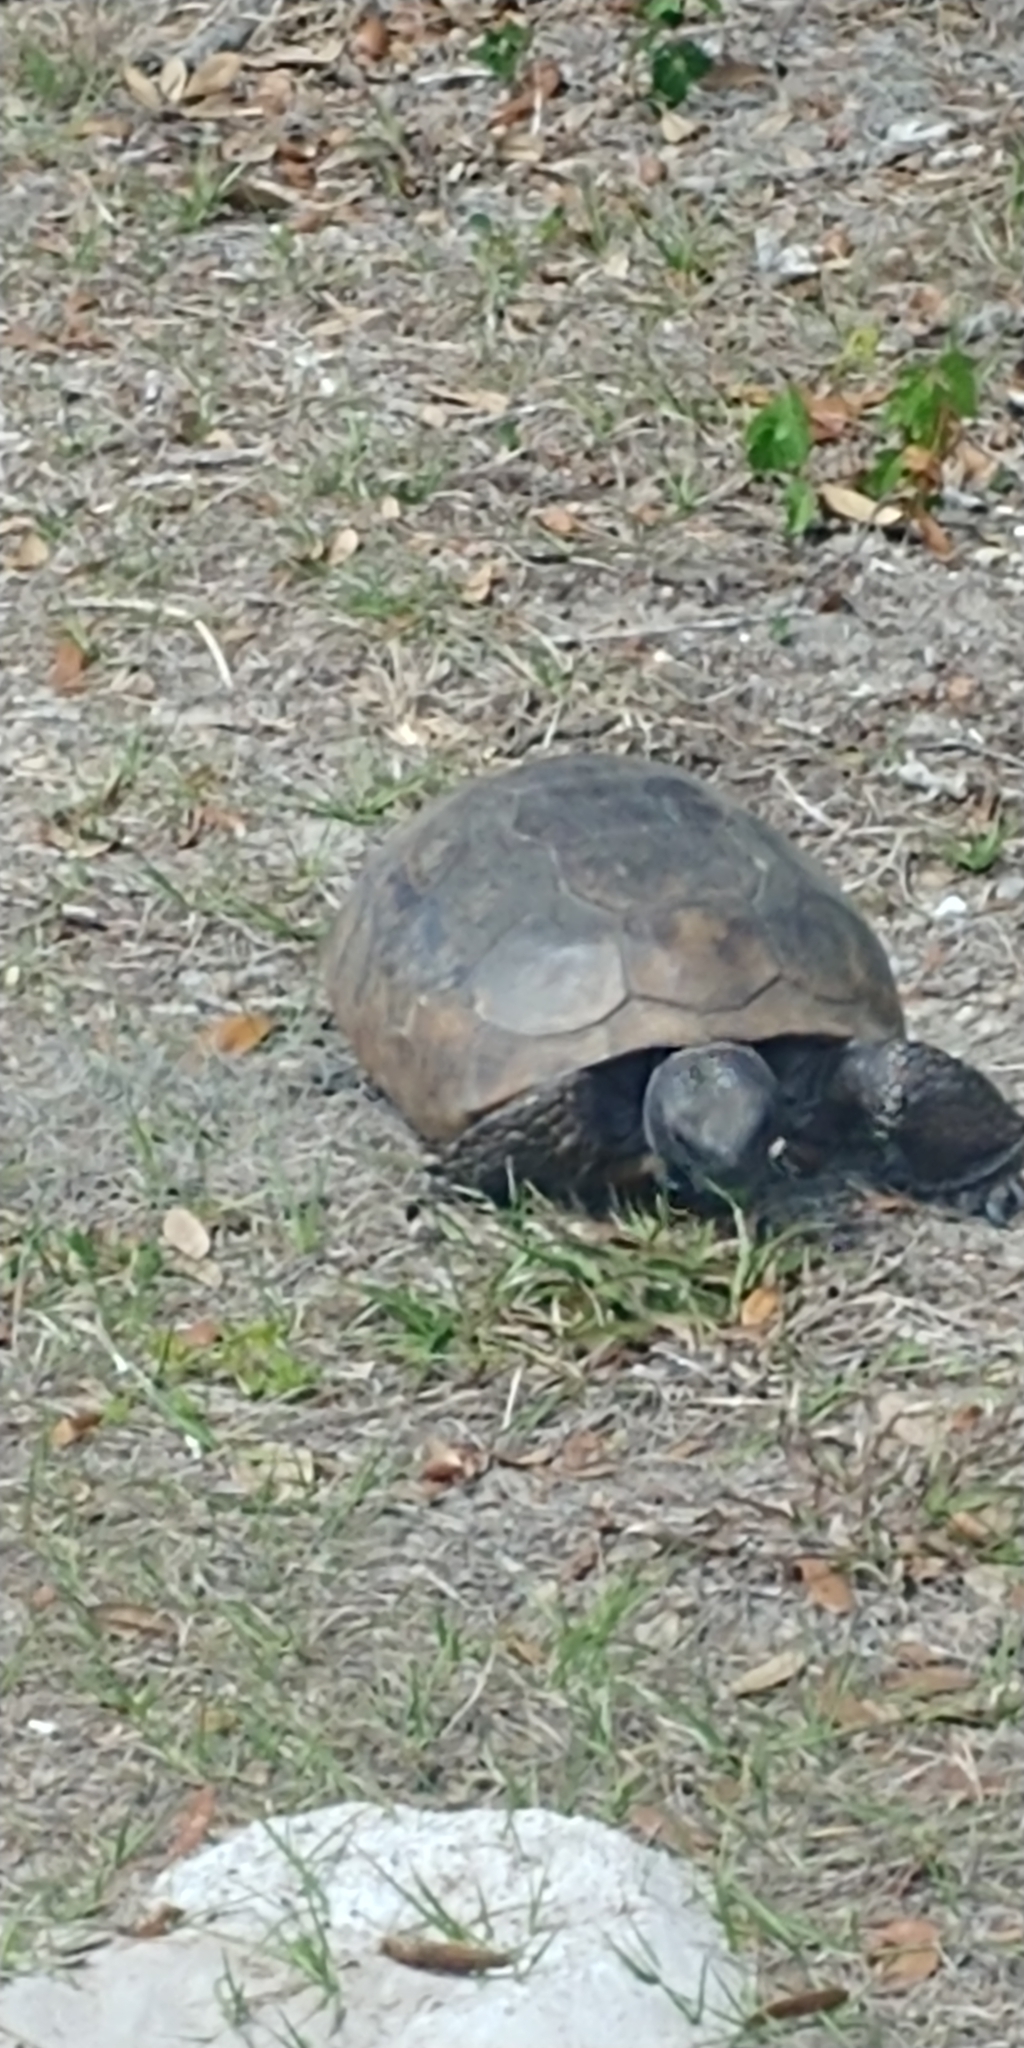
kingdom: Animalia
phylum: Chordata
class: Testudines
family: Testudinidae
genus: Gopherus
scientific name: Gopherus polyphemus
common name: Florida gopher tortoise
